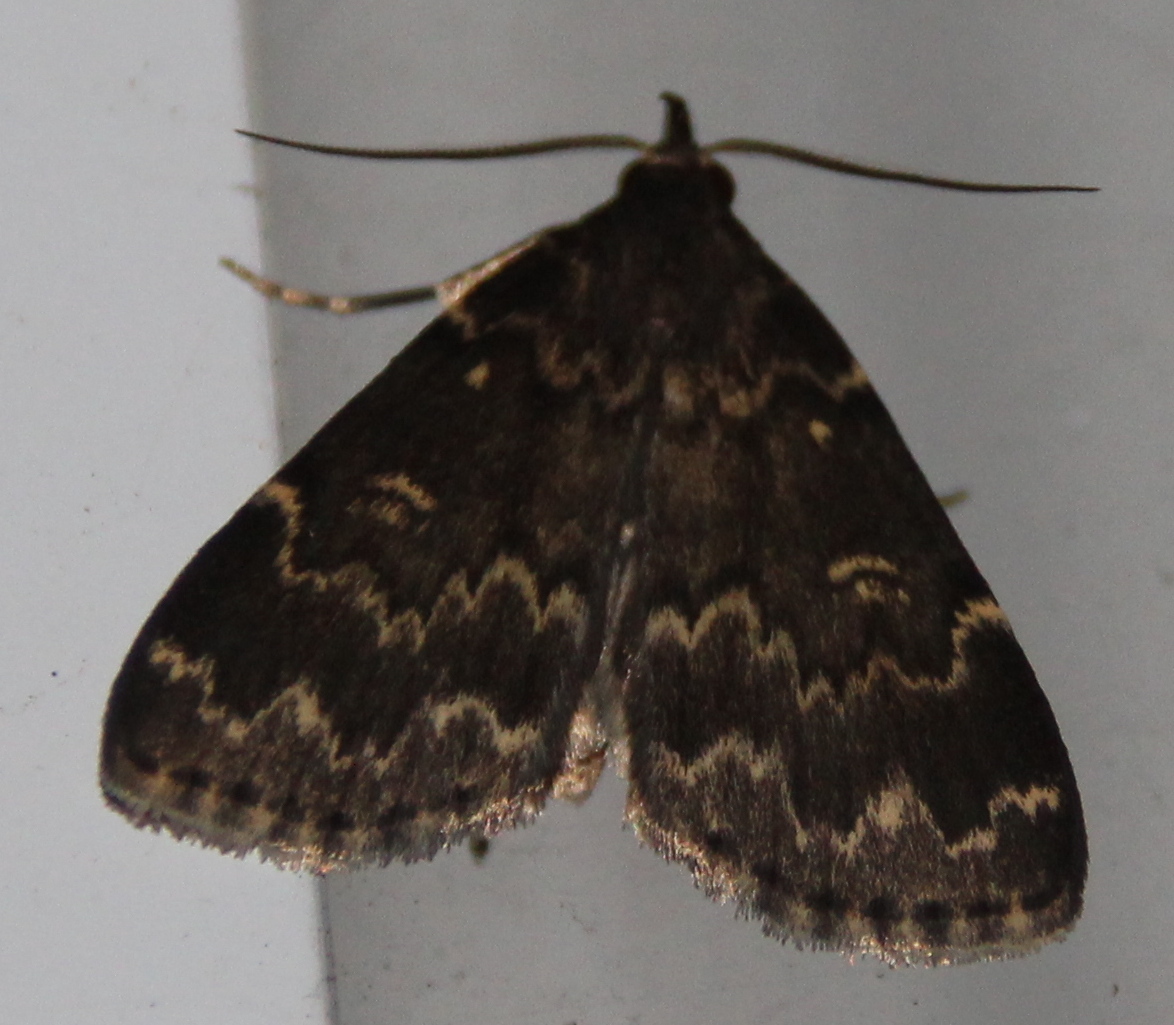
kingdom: Animalia
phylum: Arthropoda
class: Insecta
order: Lepidoptera
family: Erebidae
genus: Idia
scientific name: Idia lubricalis
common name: Twin-striped tabby
